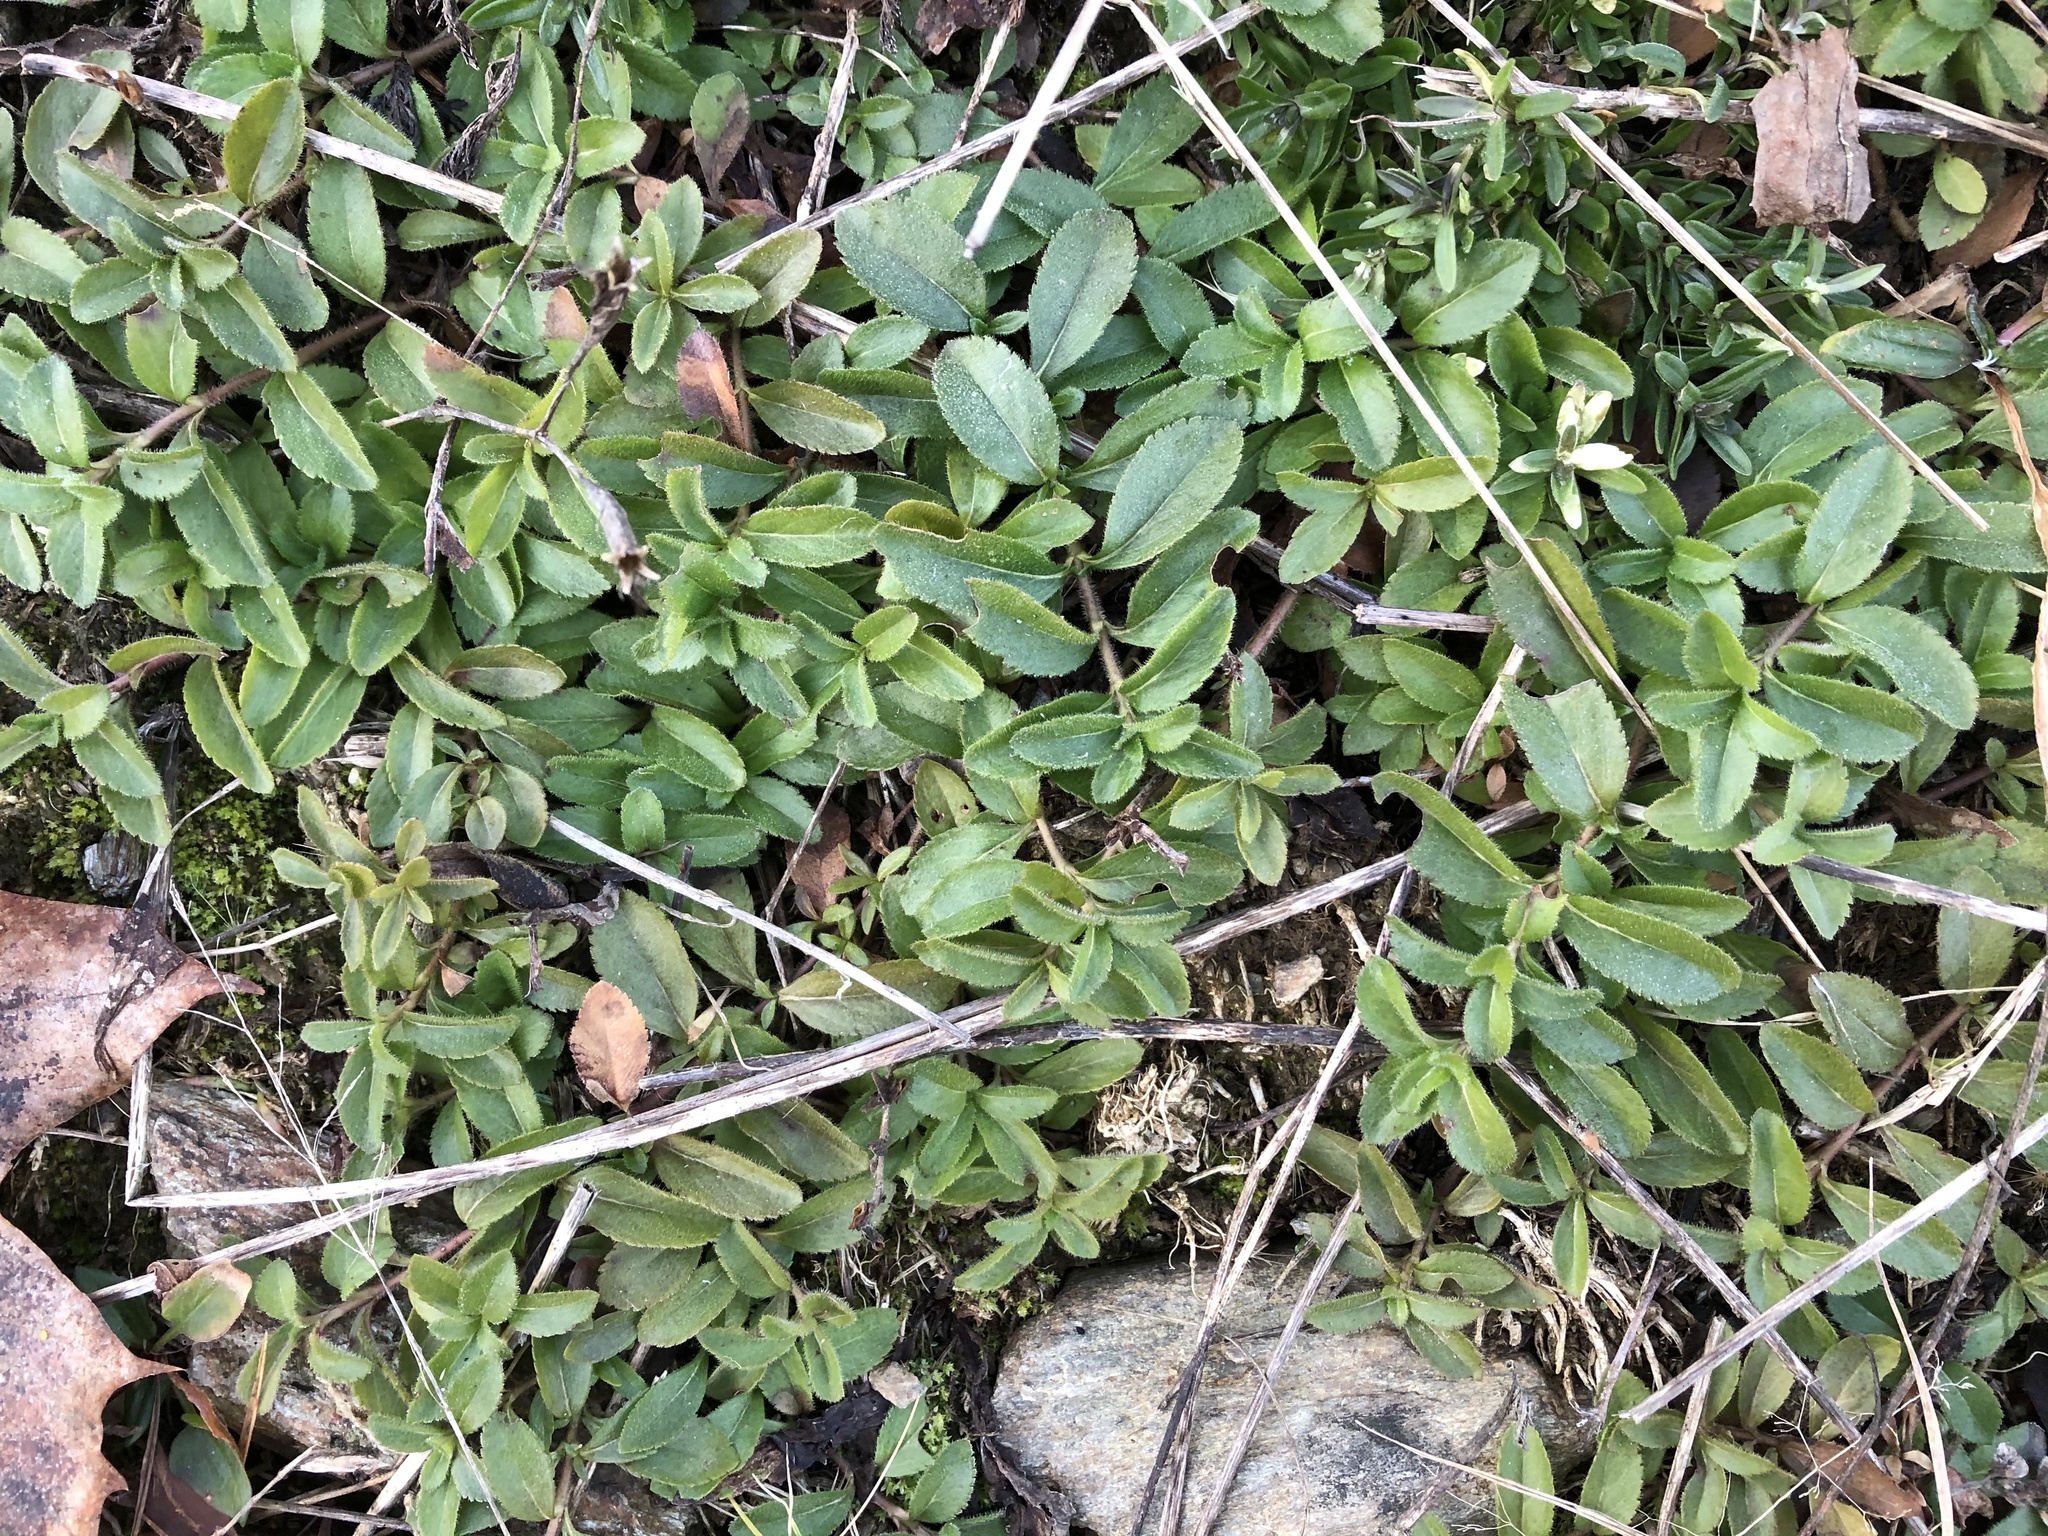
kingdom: Plantae
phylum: Tracheophyta
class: Magnoliopsida
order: Lamiales
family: Plantaginaceae
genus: Veronica
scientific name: Veronica officinalis
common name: Common speedwell
